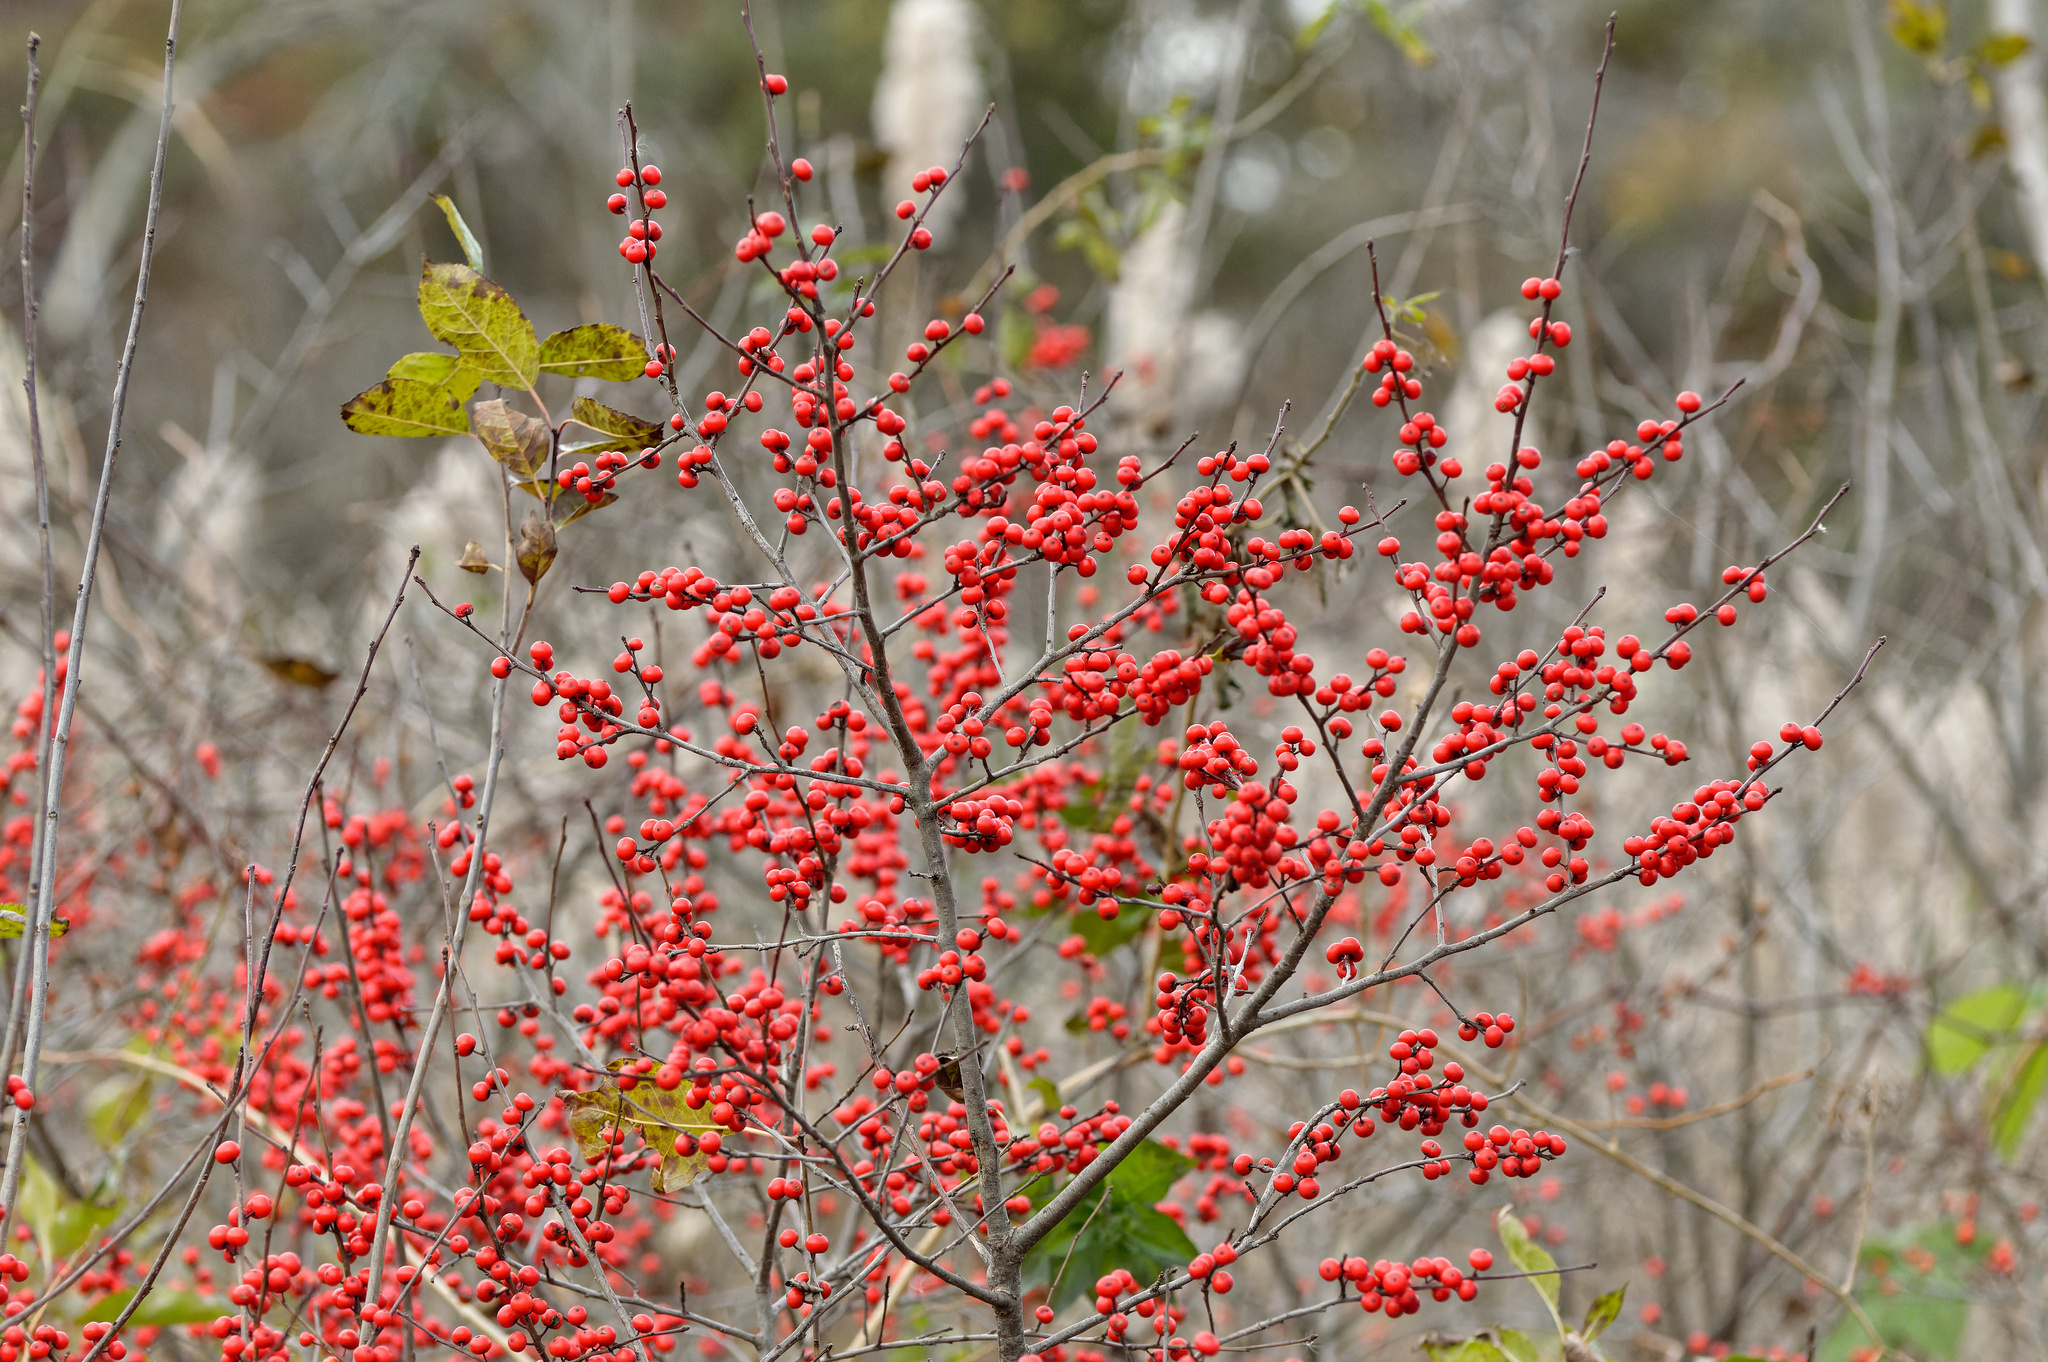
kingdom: Plantae
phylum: Tracheophyta
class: Magnoliopsida
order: Aquifoliales
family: Aquifoliaceae
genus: Ilex
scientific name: Ilex verticillata
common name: Virginia winterberry
